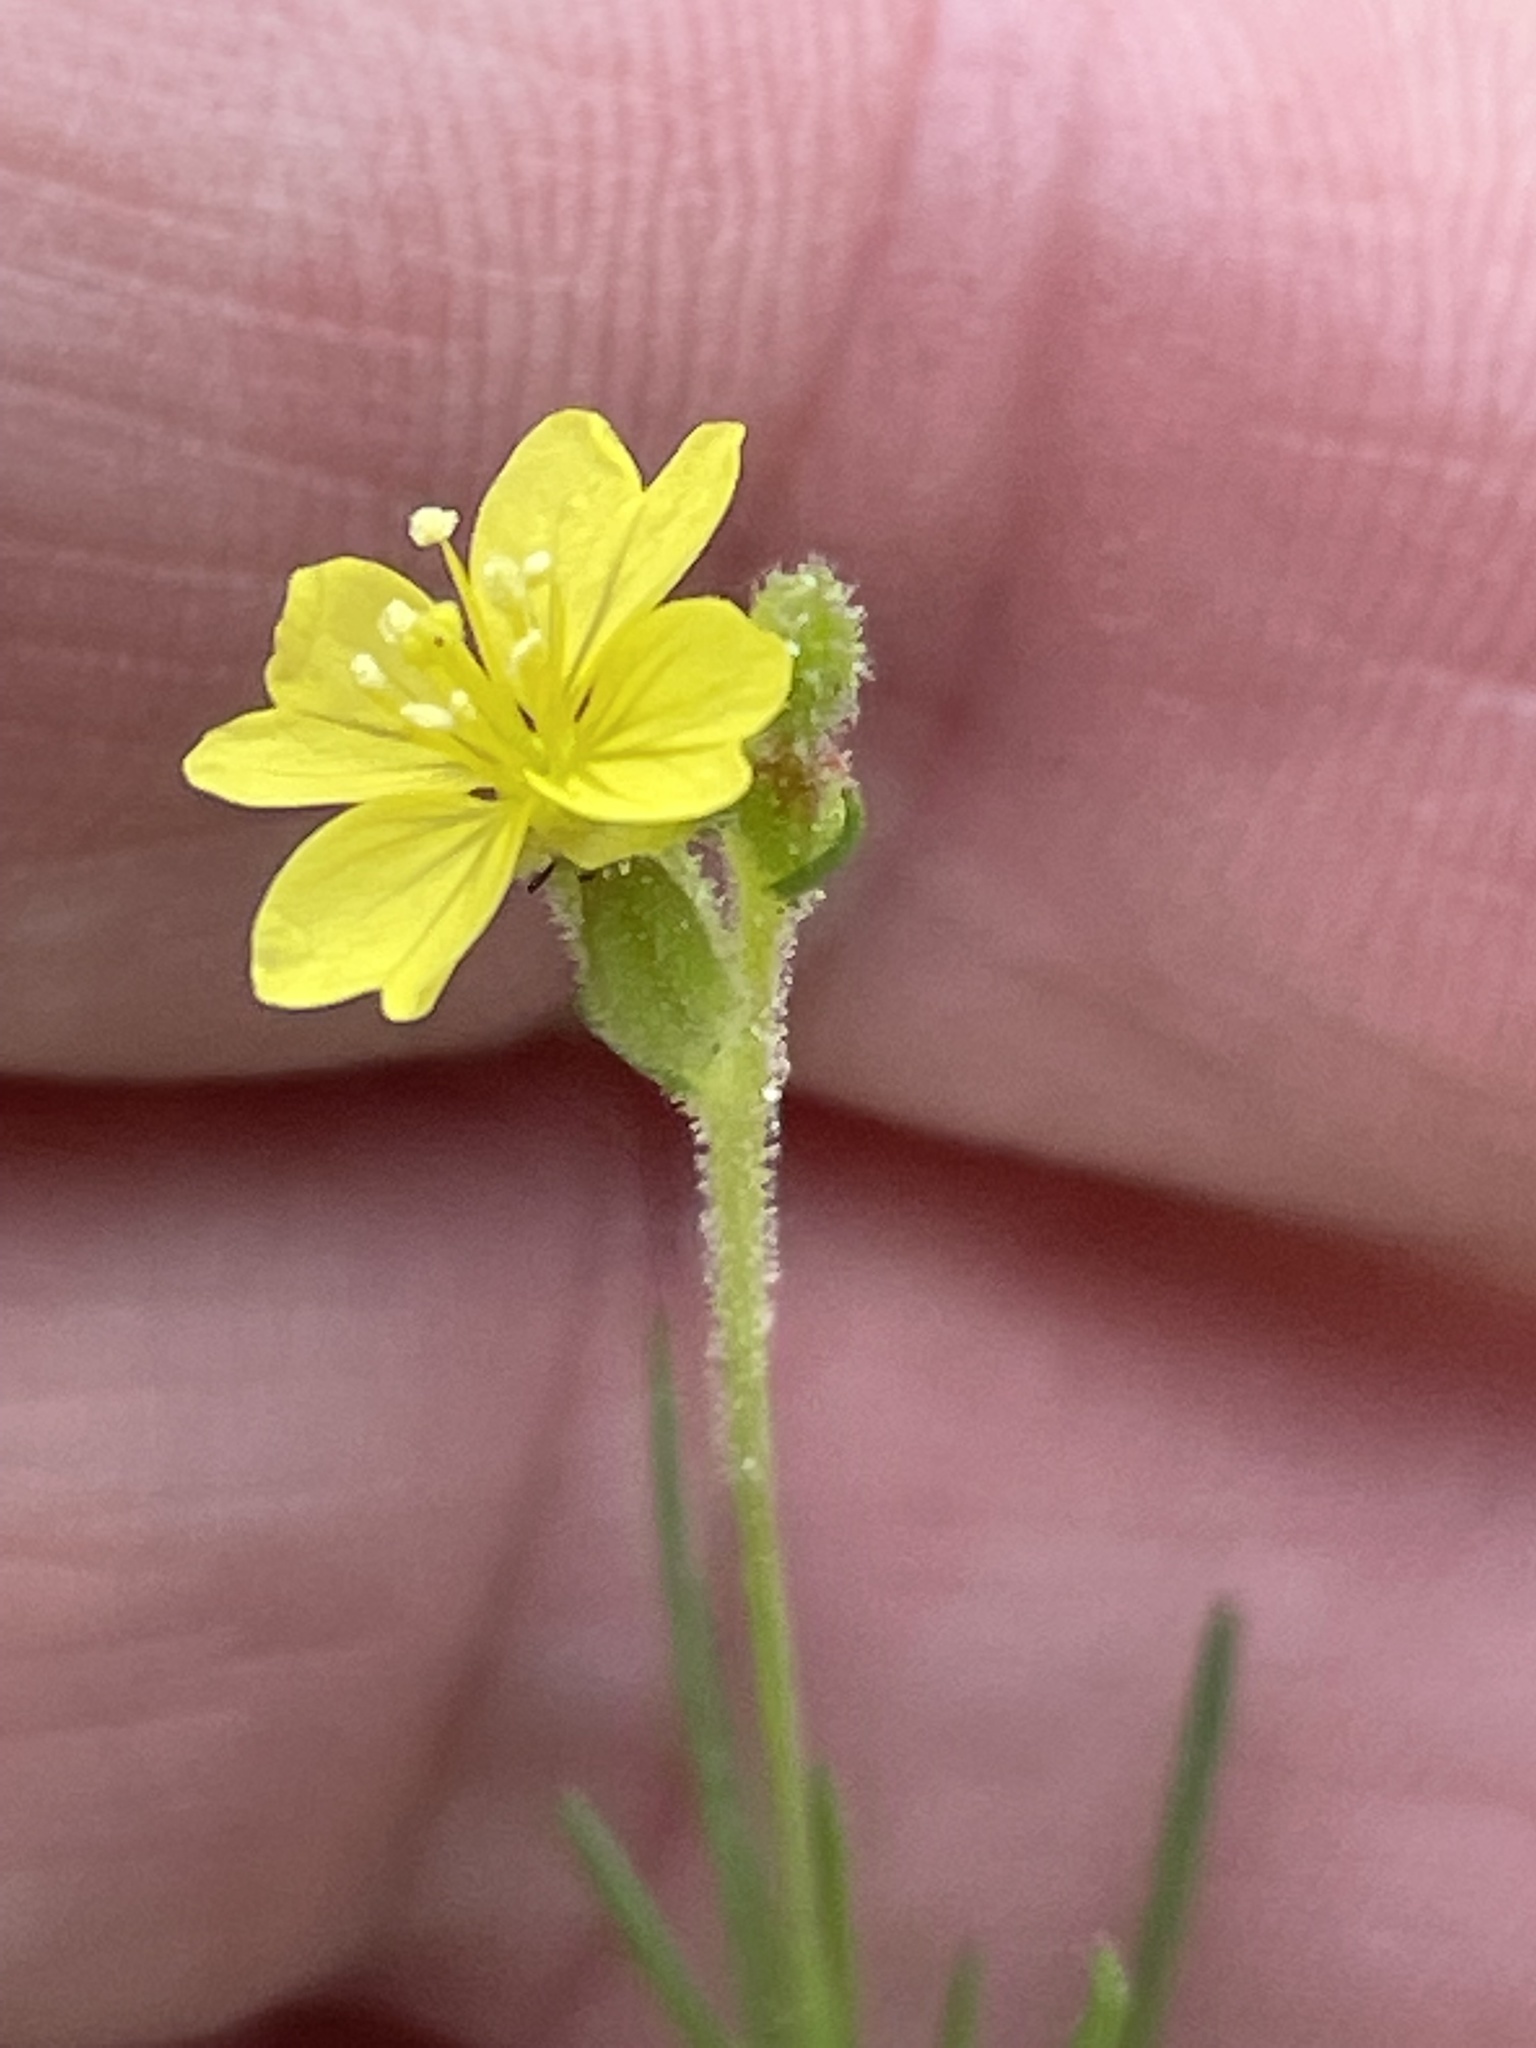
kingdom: Plantae
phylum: Tracheophyta
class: Magnoliopsida
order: Myrtales
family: Onagraceae
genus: Oenothera
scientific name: Oenothera linifolia
